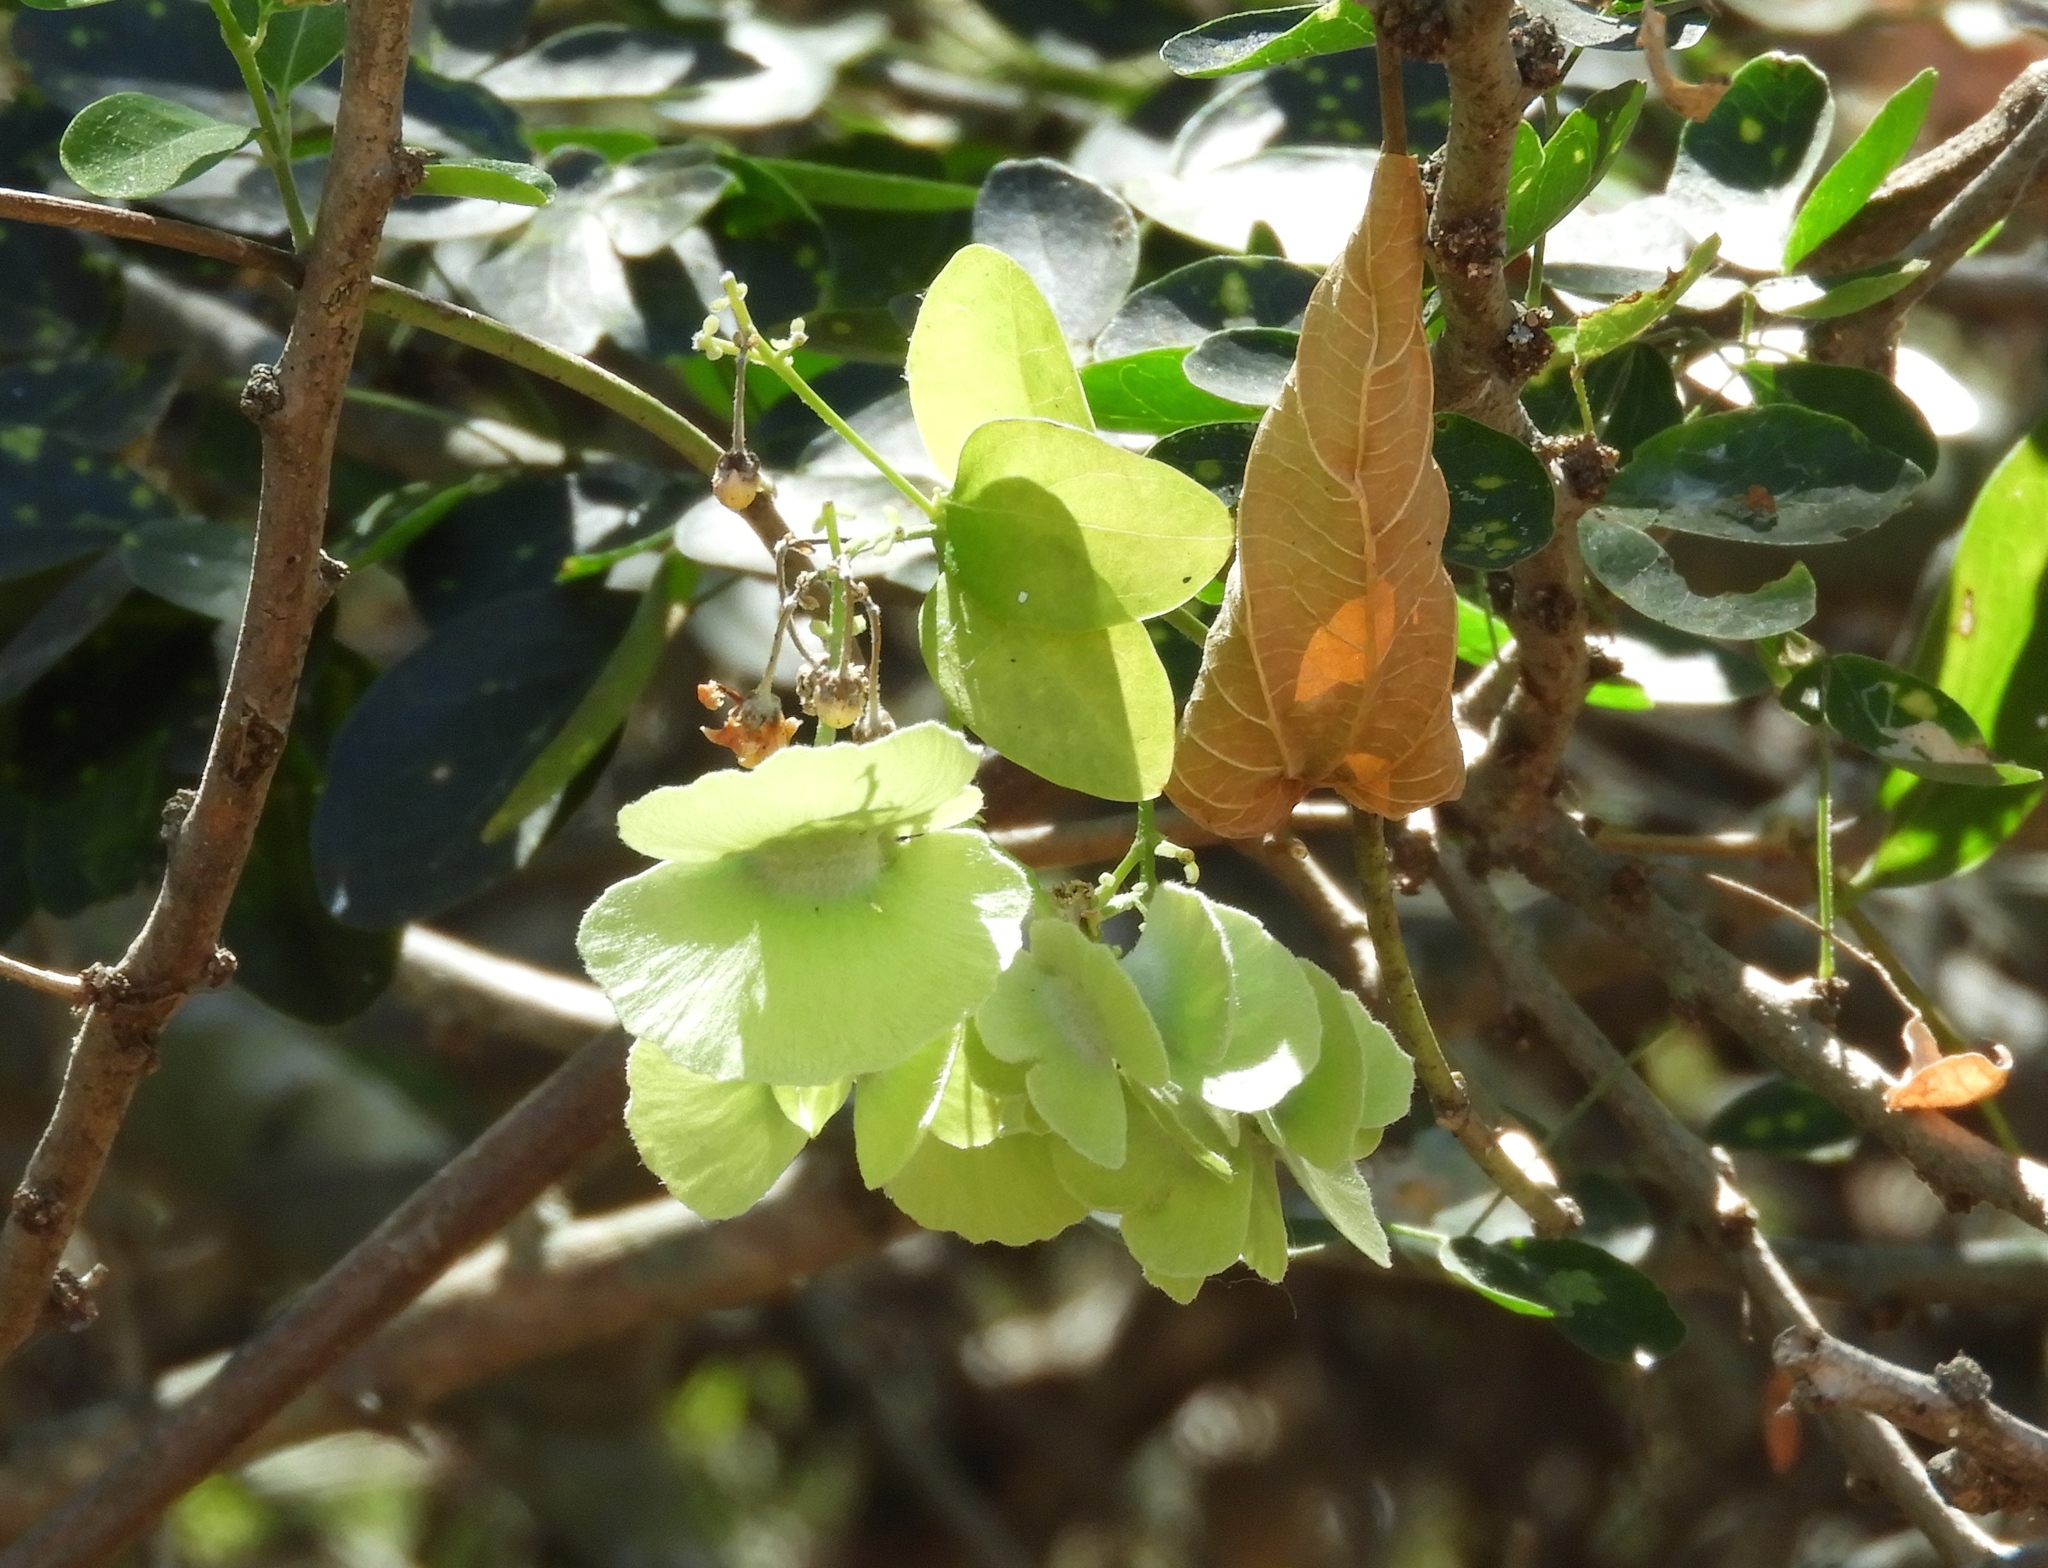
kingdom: Plantae
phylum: Tracheophyta
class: Magnoliopsida
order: Malpighiales
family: Malpighiaceae
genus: Callaeum
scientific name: Callaeum macropterum
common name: Mexican butterfly-vine
